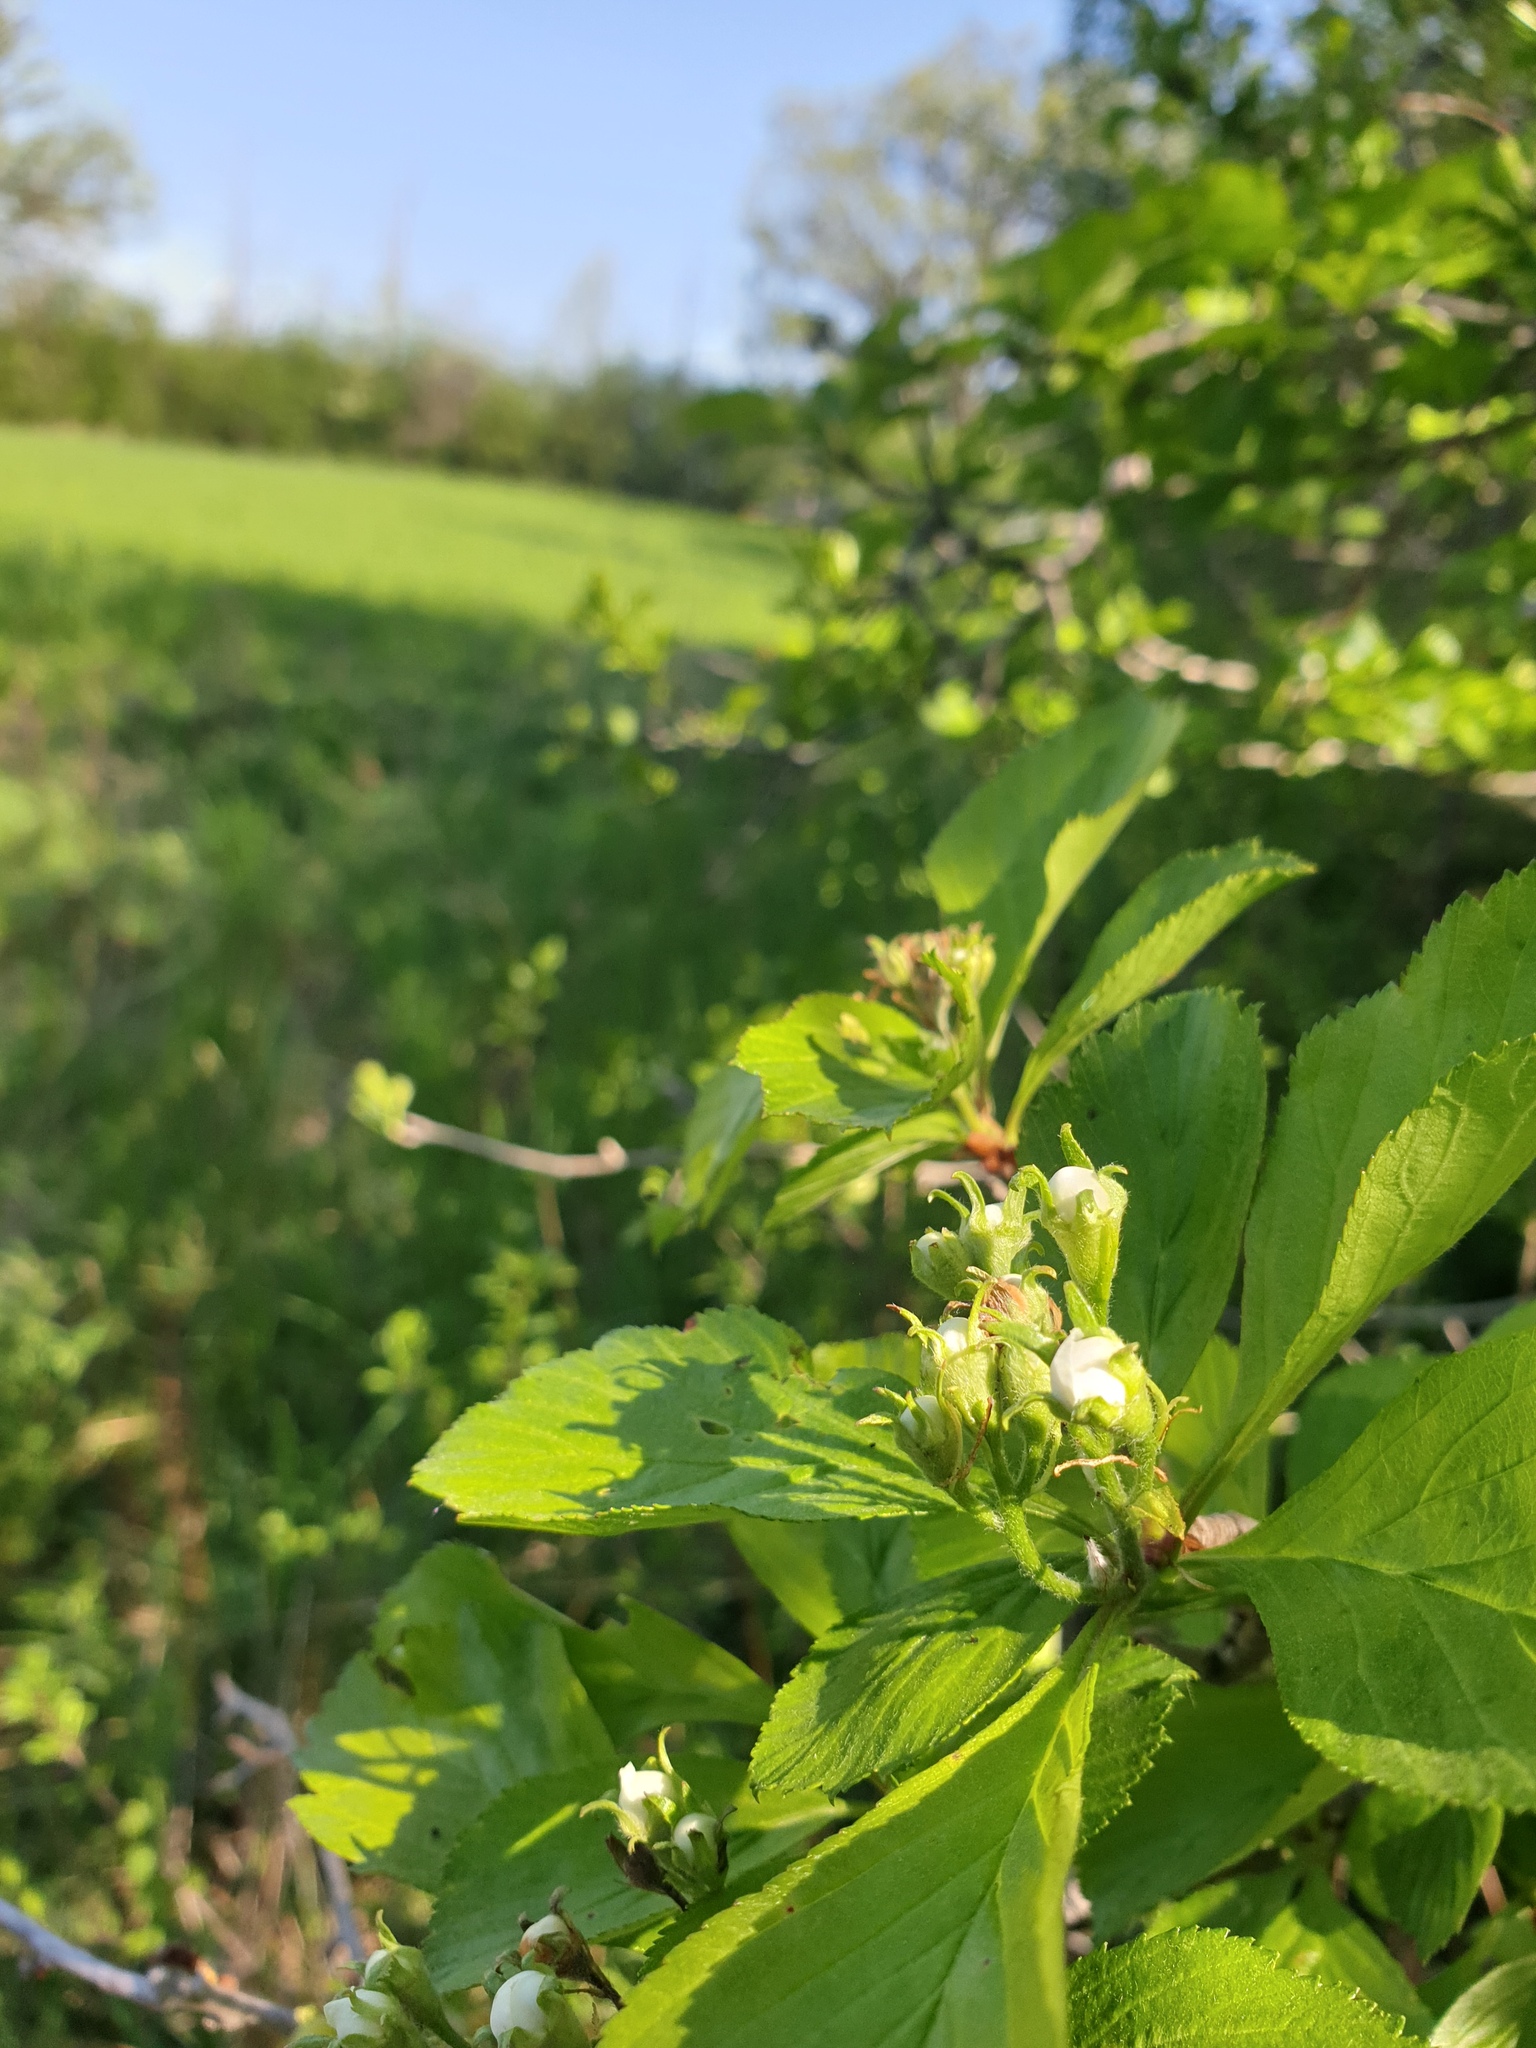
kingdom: Plantae
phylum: Tracheophyta
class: Magnoliopsida
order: Rosales
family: Rosaceae
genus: Crataegus
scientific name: Crataegus punctata
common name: Dotted hawthorn
